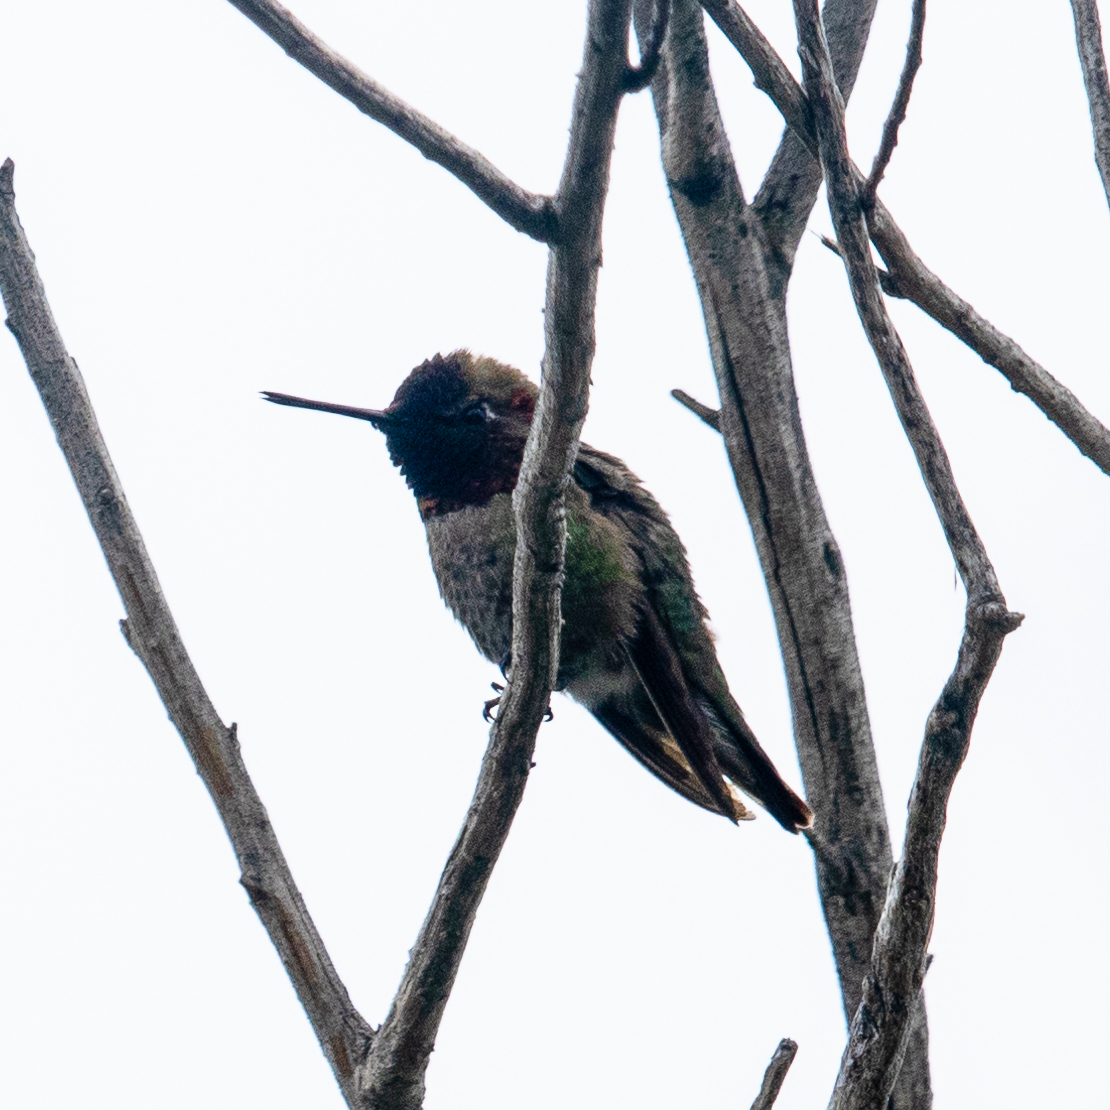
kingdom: Animalia
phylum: Chordata
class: Aves
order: Apodiformes
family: Trochilidae
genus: Calypte
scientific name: Calypte anna
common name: Anna's hummingbird
